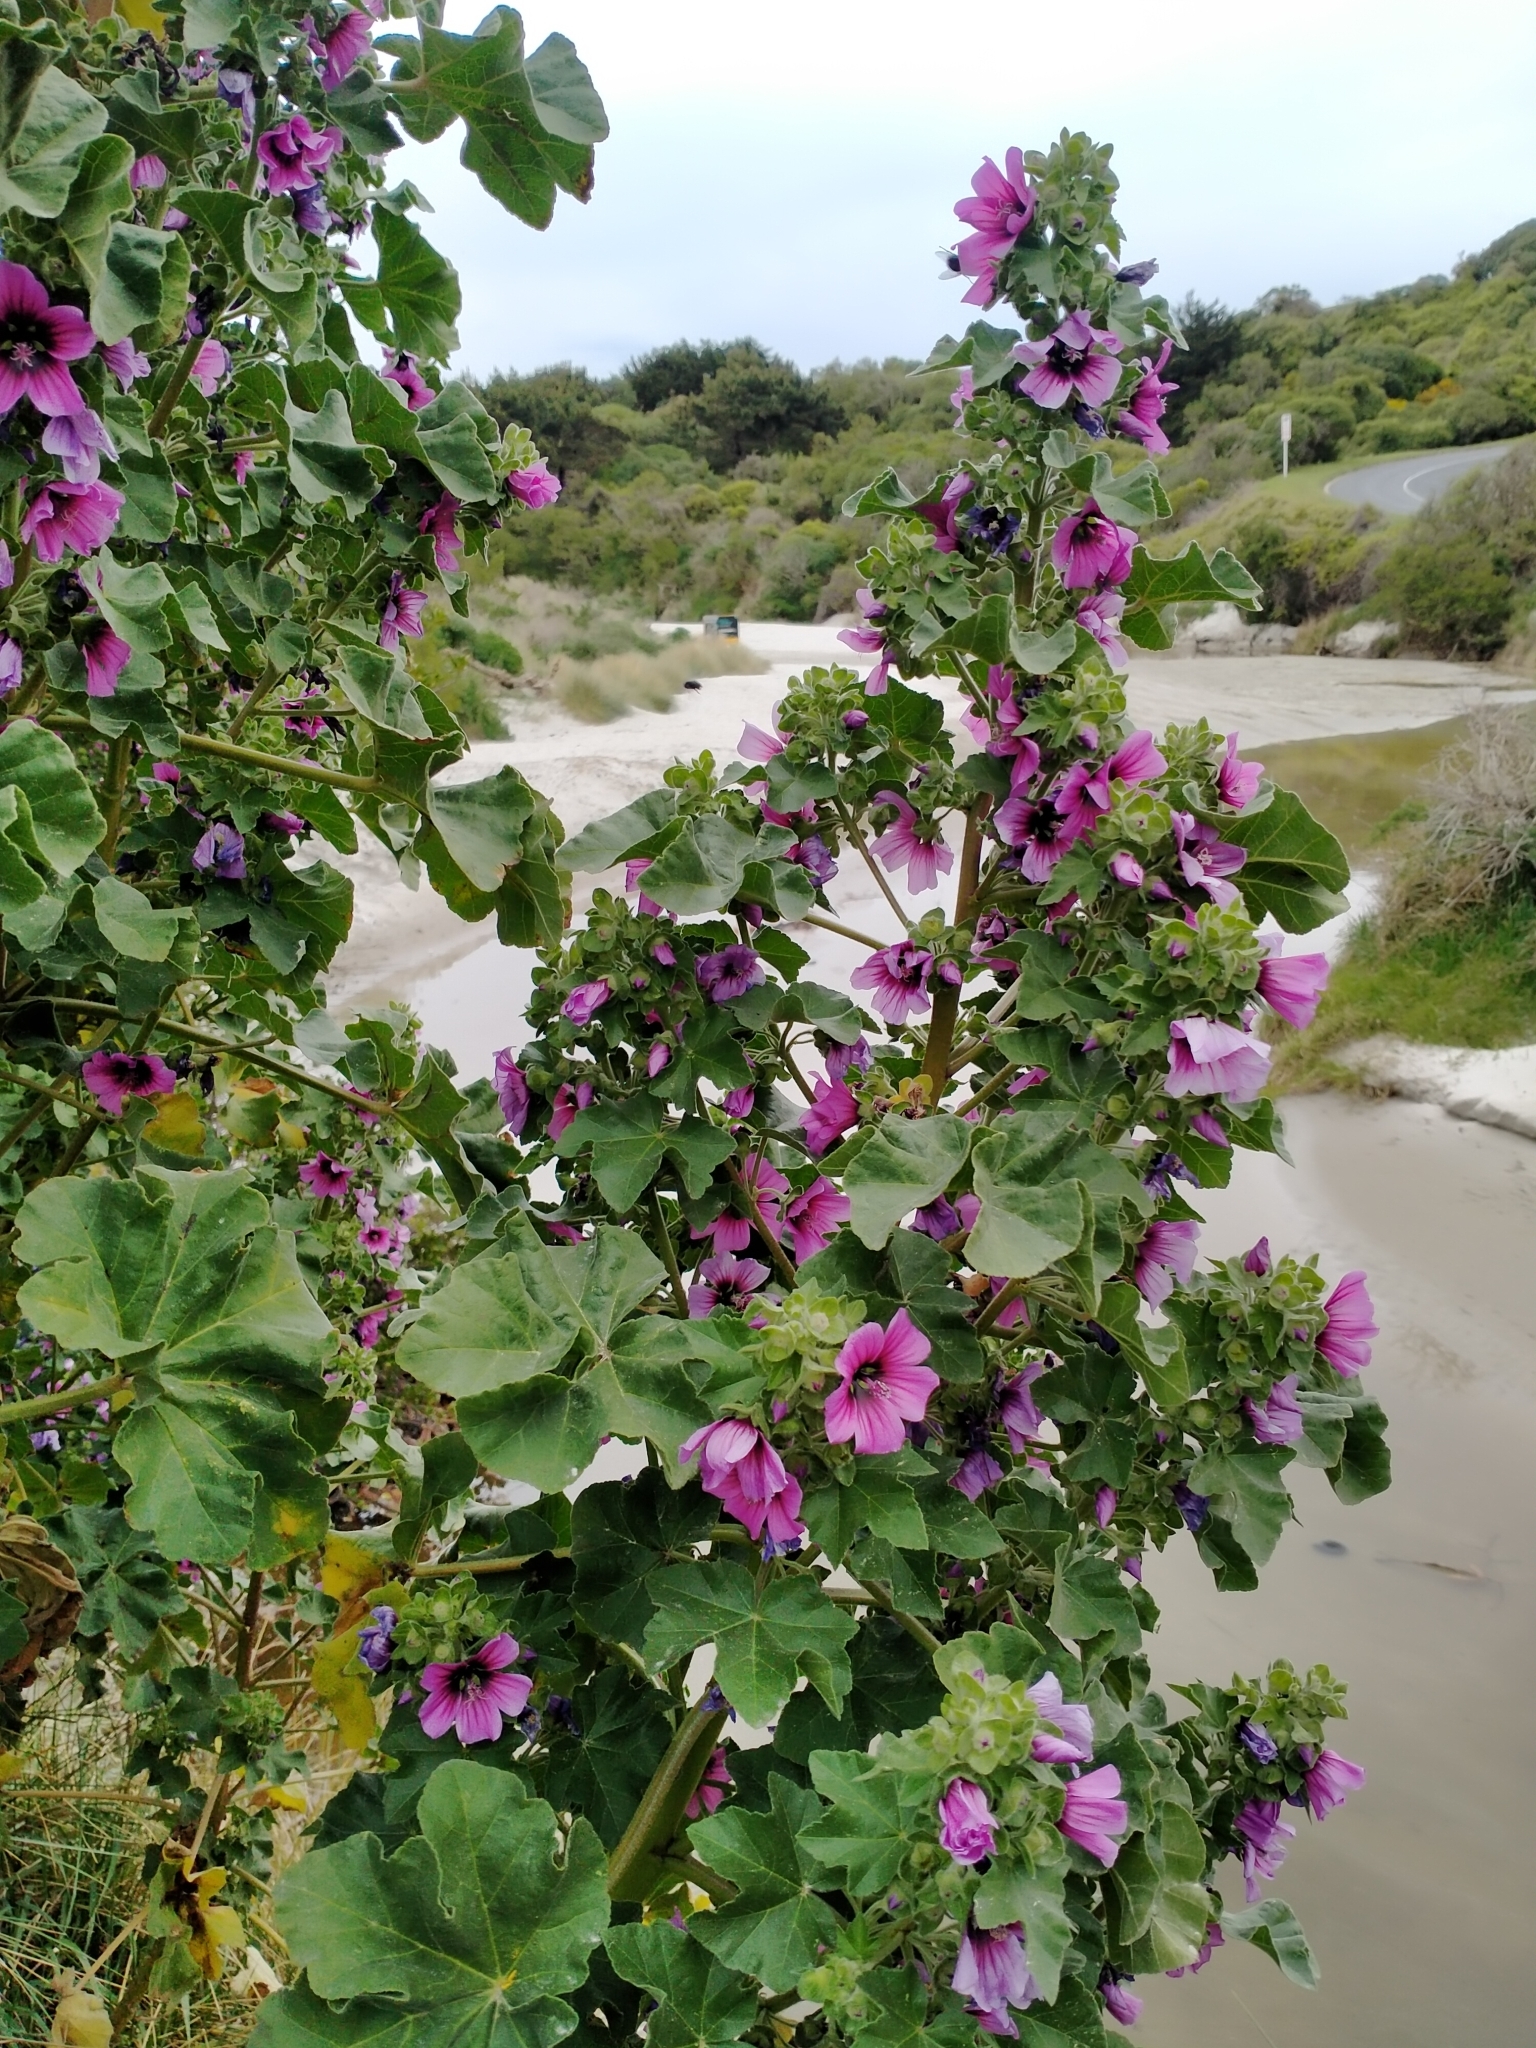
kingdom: Plantae
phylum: Tracheophyta
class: Magnoliopsida
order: Malvales
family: Malvaceae
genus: Malva
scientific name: Malva arborea
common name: Tree mallow
